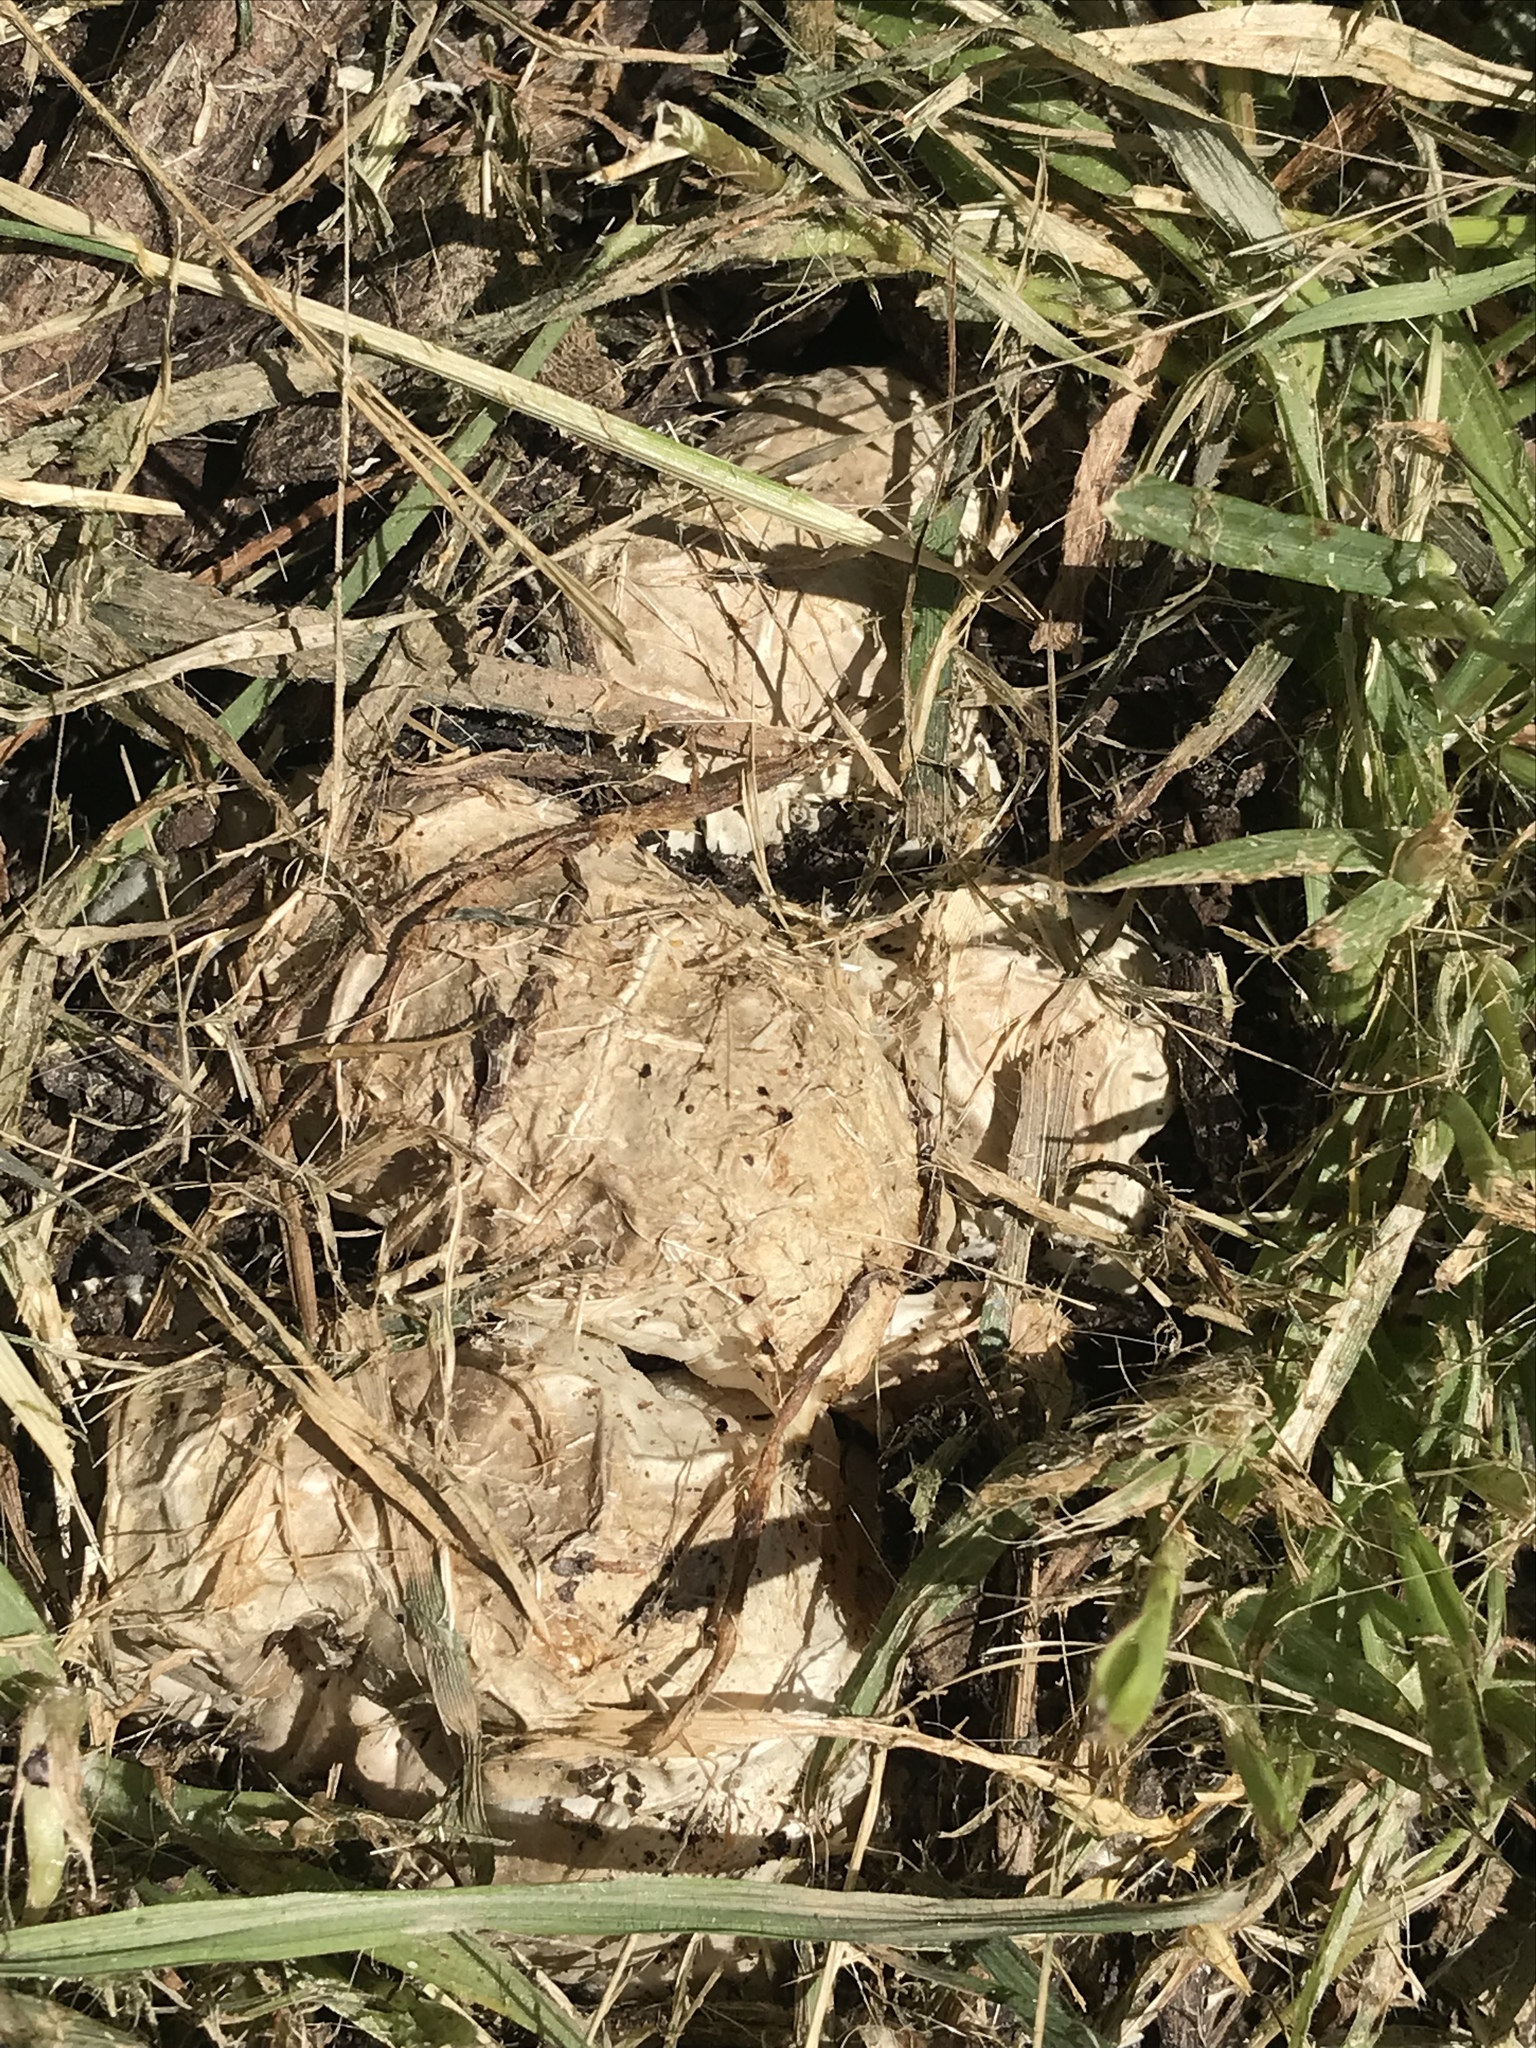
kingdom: Fungi
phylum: Basidiomycota
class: Agaricomycetes
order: Phallales
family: Phallaceae
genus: Clathrus
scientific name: Clathrus ruber
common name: Red cage
